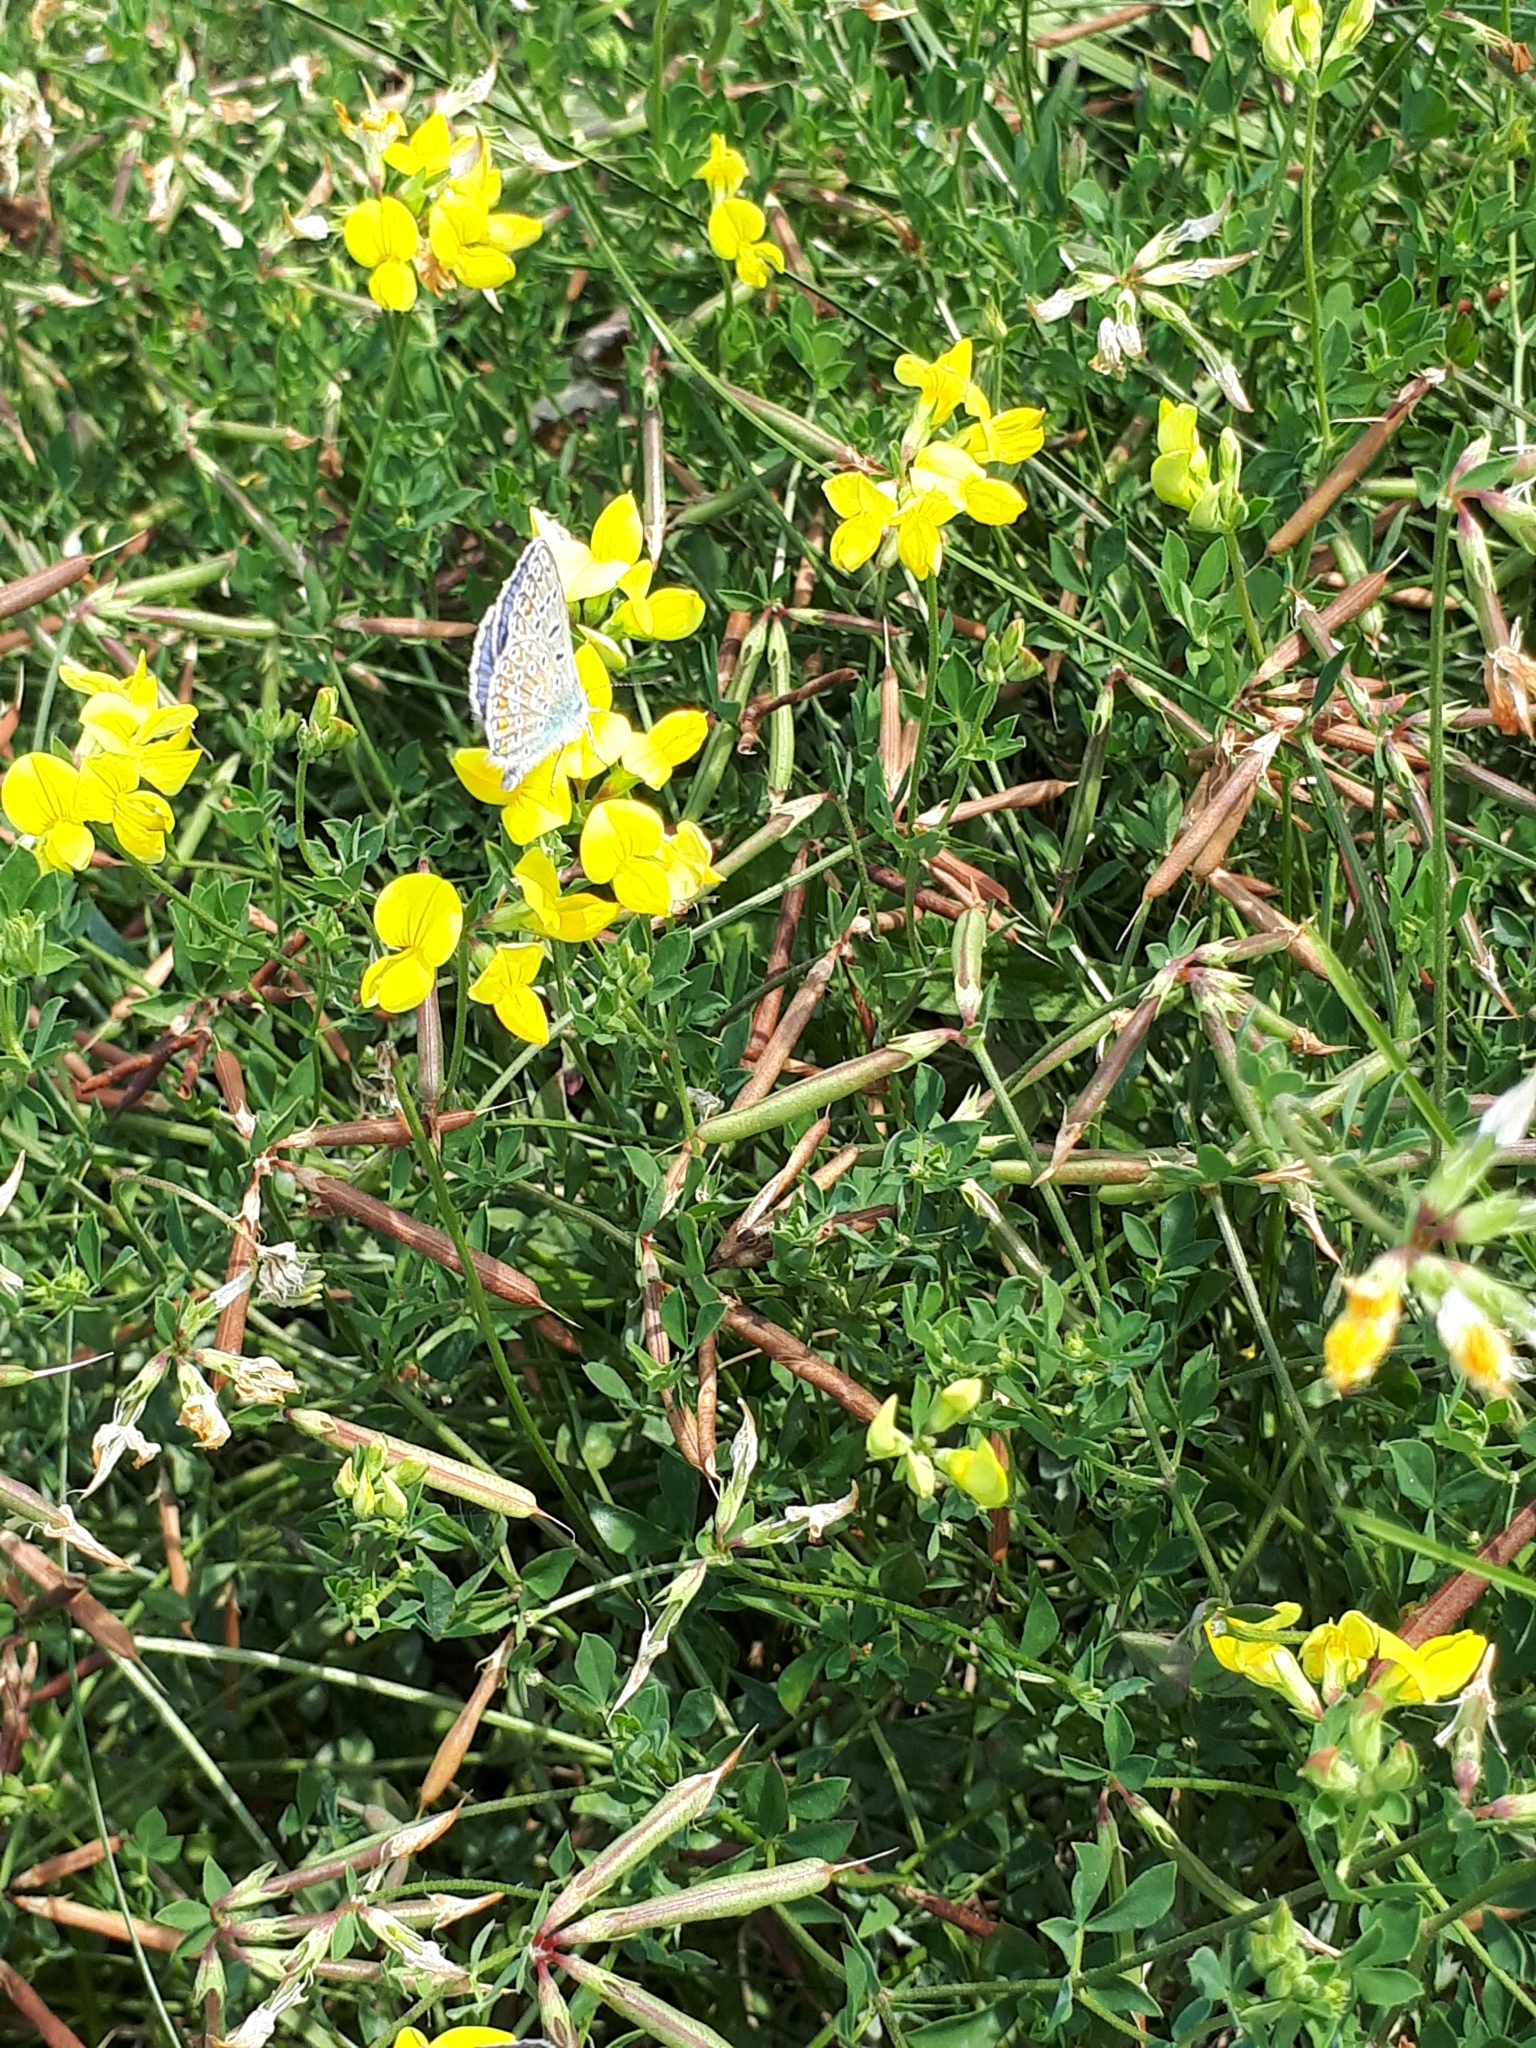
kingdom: Animalia
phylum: Arthropoda
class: Insecta
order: Lepidoptera
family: Lycaenidae
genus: Polyommatus
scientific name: Polyommatus icarus
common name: Common blue
